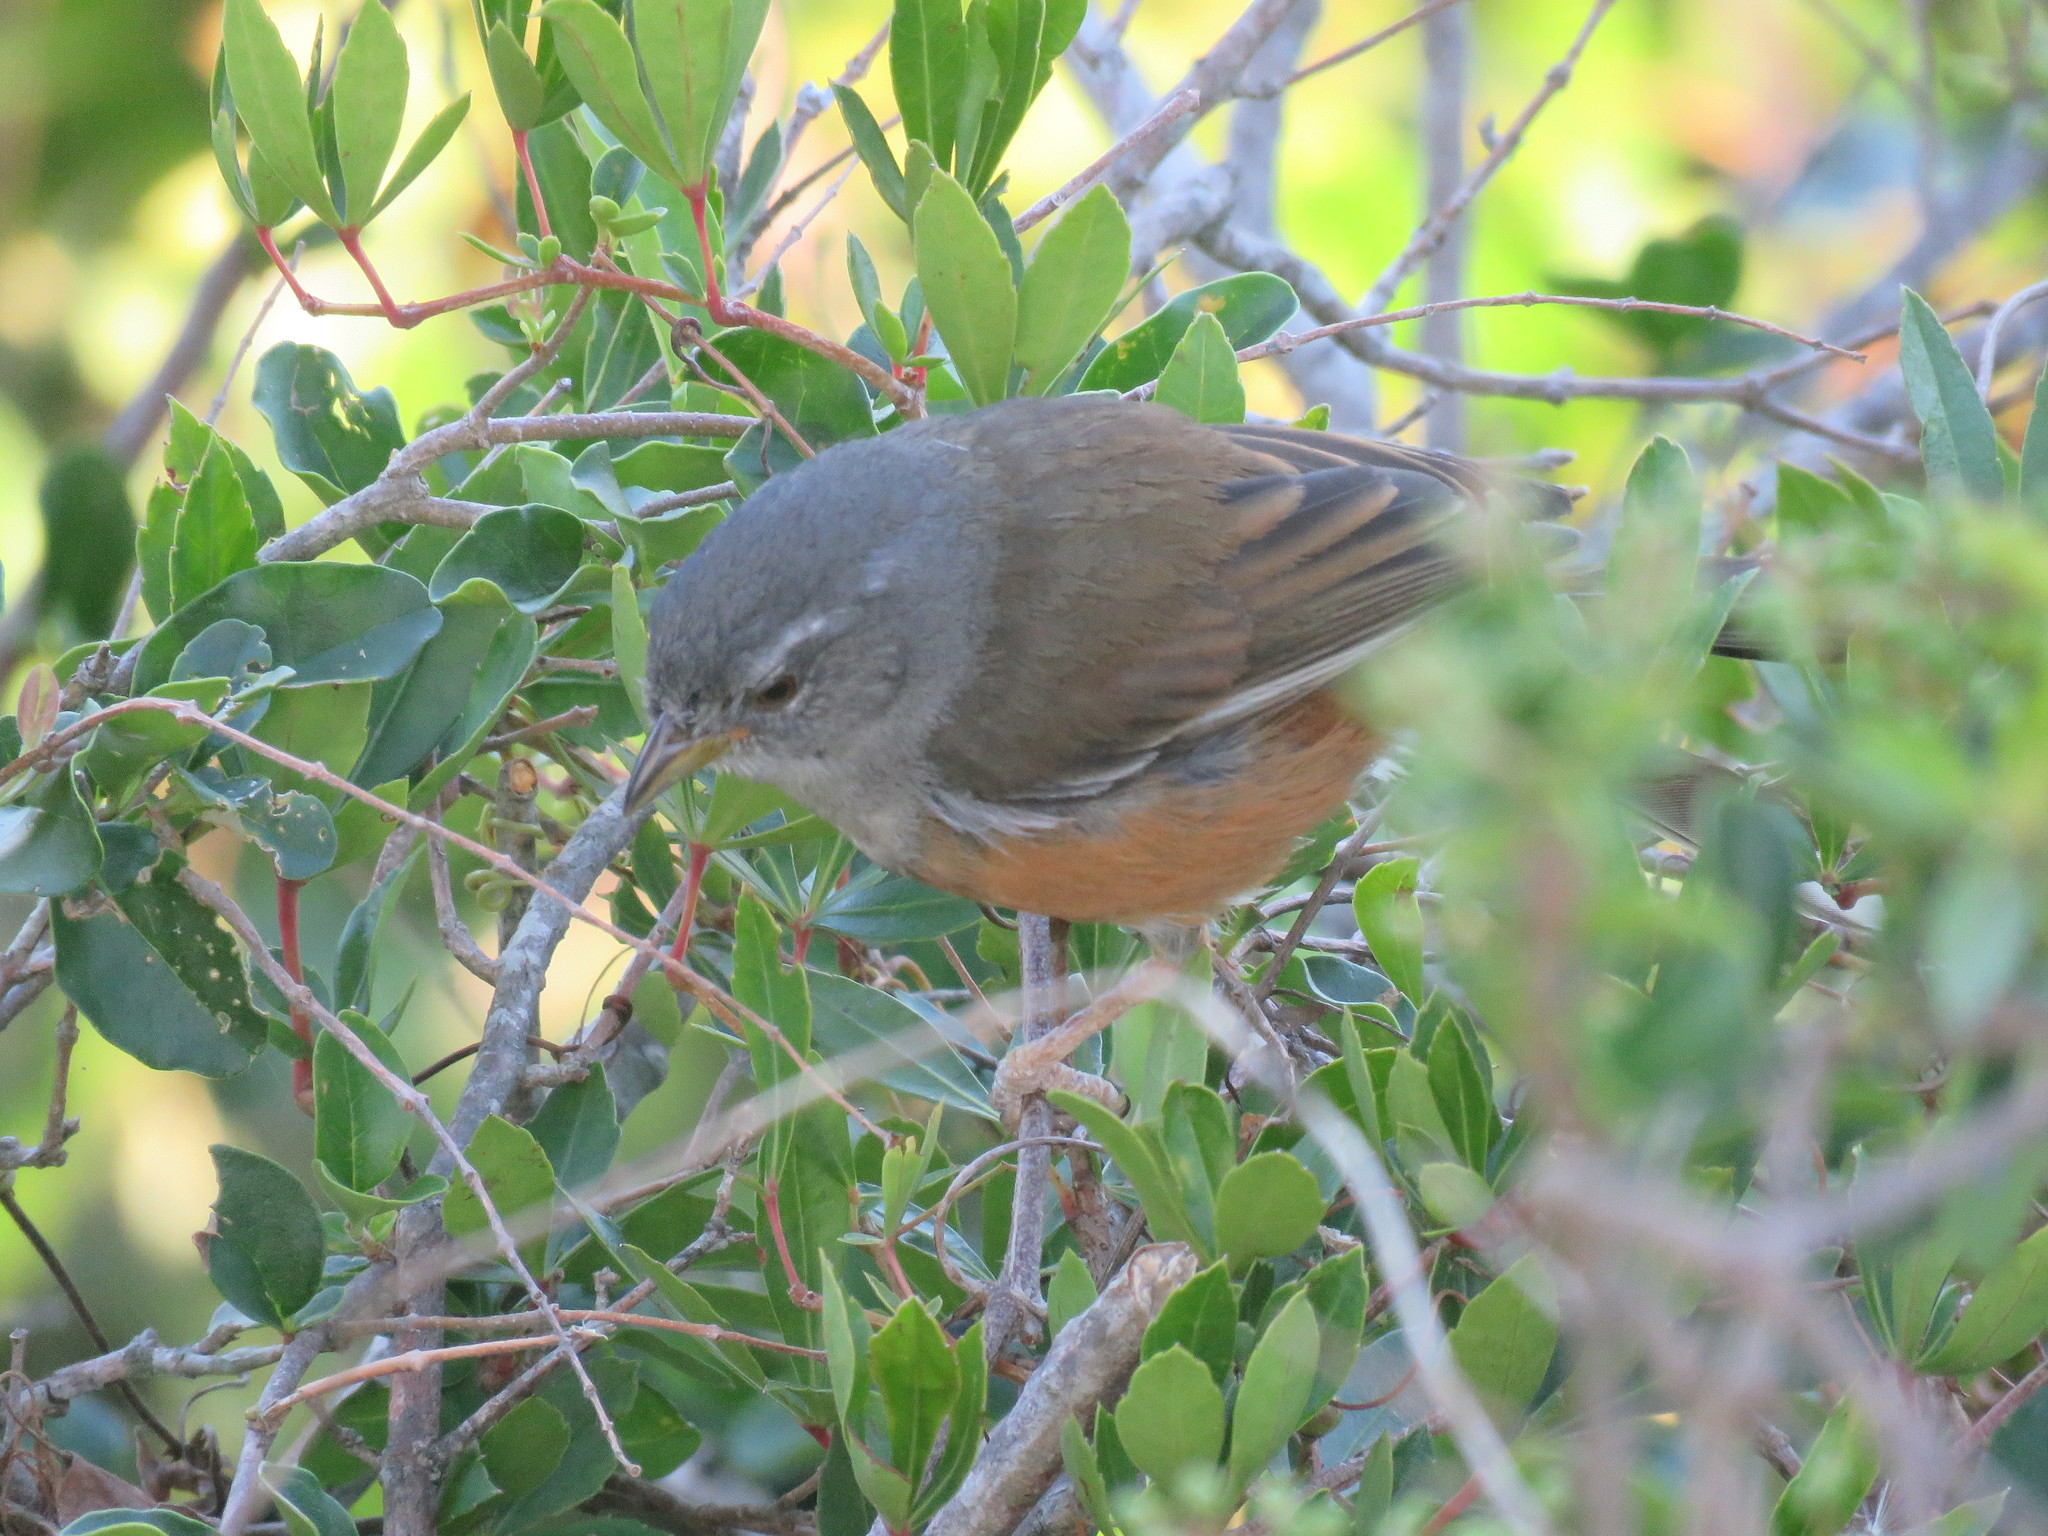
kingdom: Animalia
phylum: Chordata
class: Aves
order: Passeriformes
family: Thraupidae
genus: Microspingus
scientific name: Microspingus cabanisi
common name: Gray-throated warbling-finch
